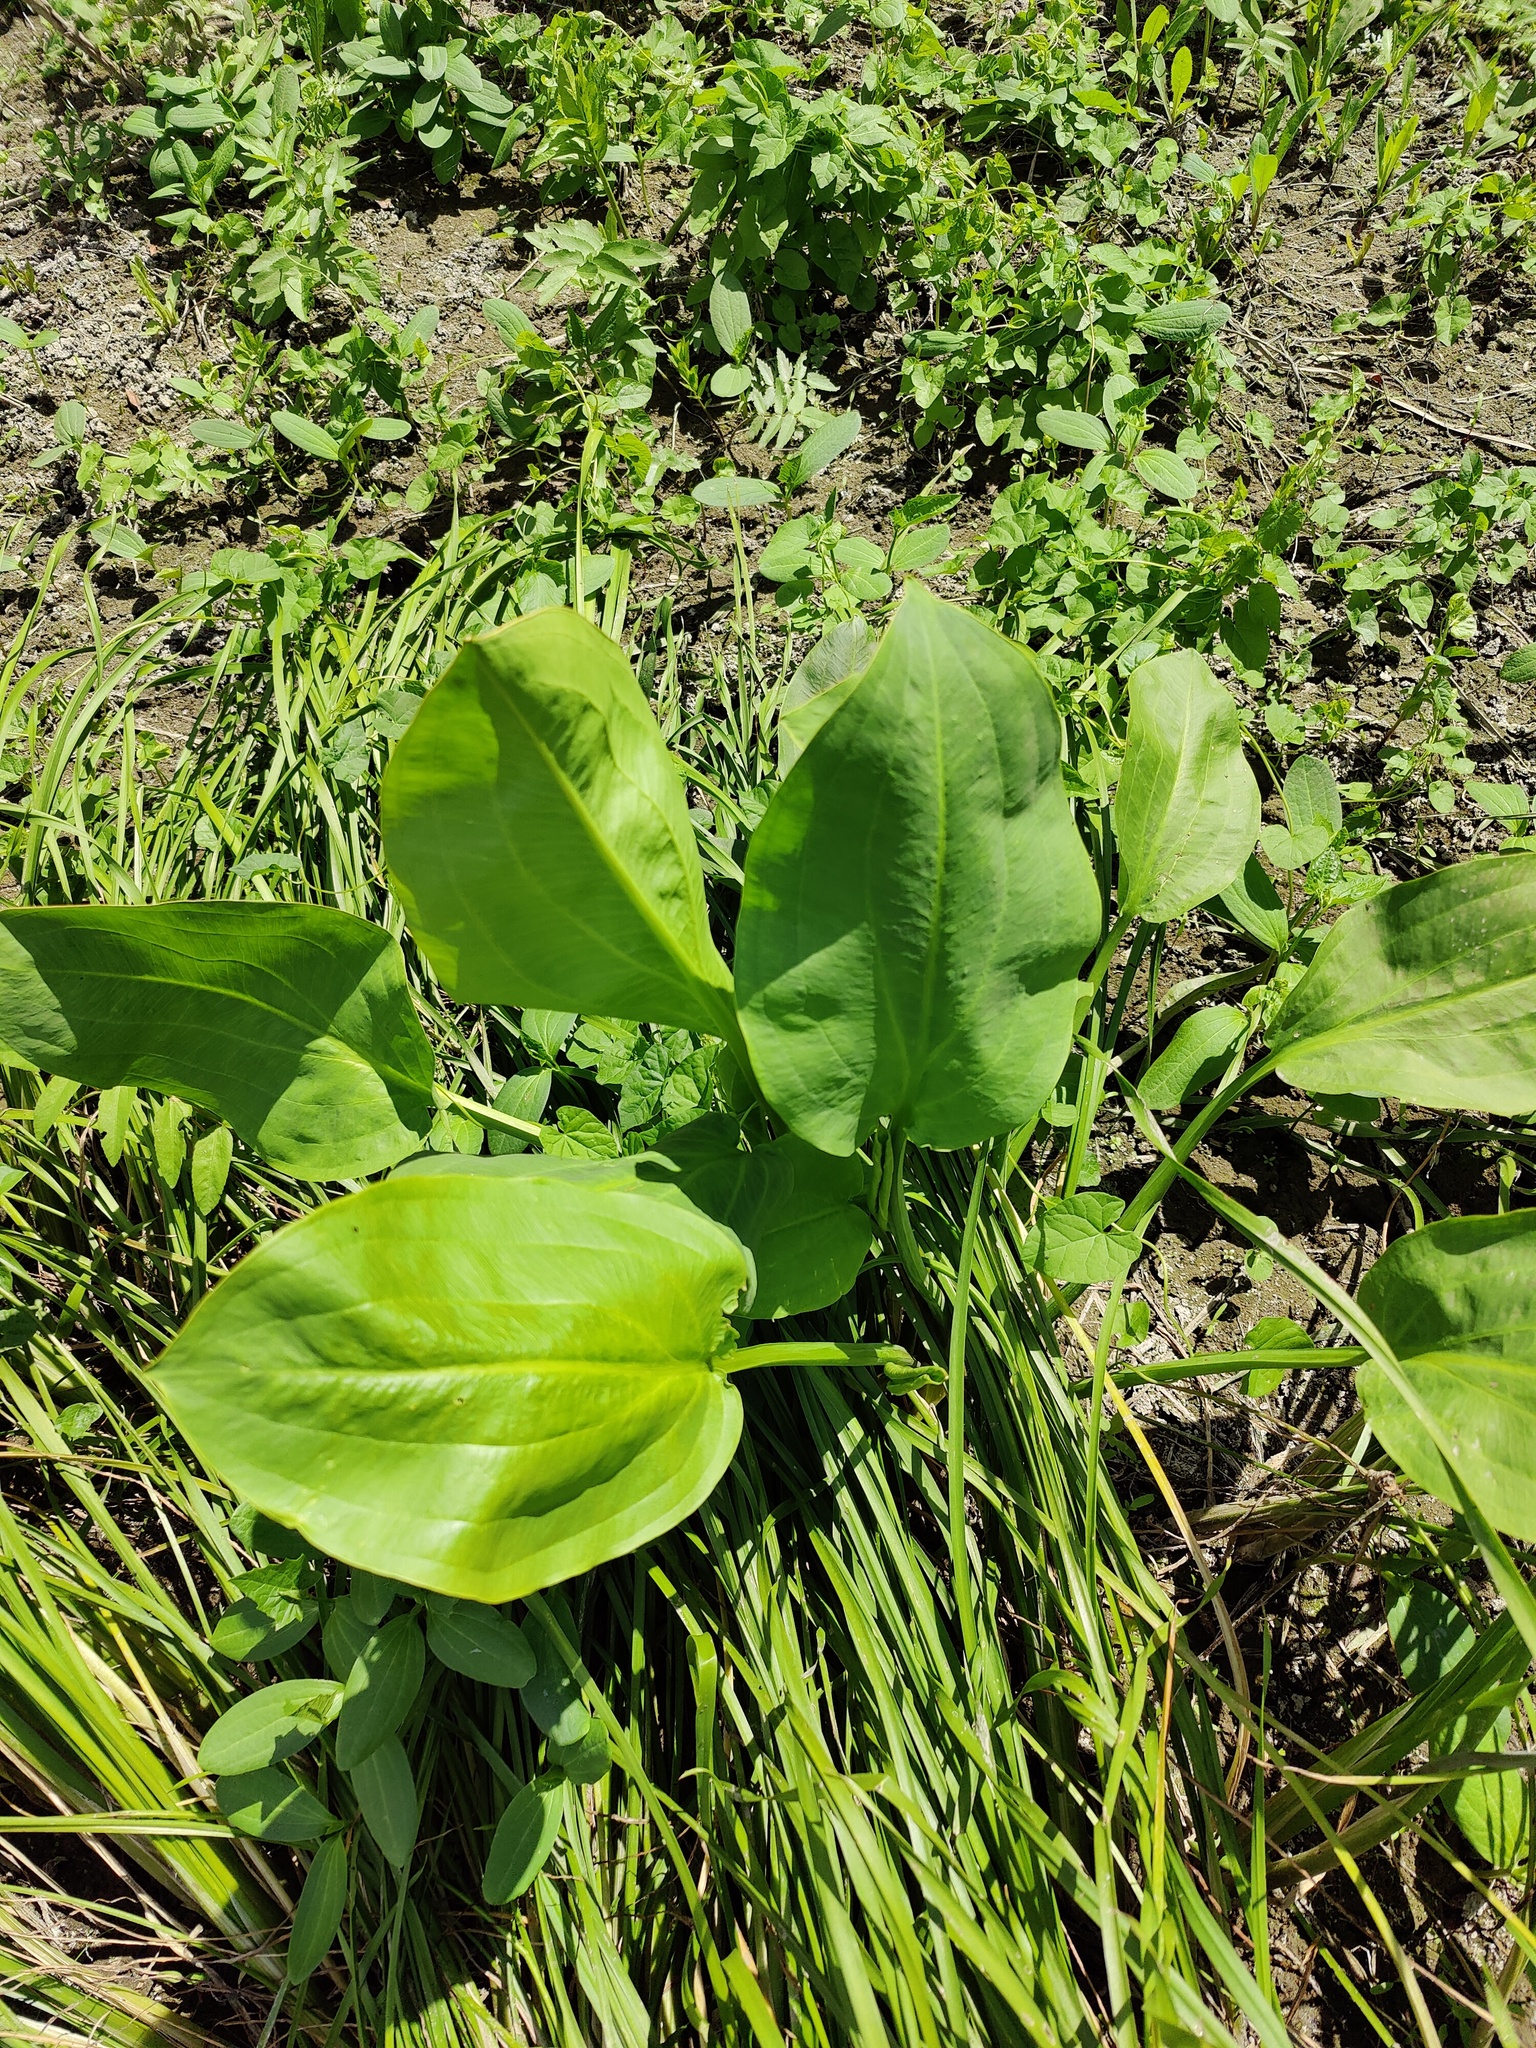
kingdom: Plantae
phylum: Tracheophyta
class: Liliopsida
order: Alismatales
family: Alismataceae
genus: Alisma
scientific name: Alisma plantago-aquatica
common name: Water-plantain
